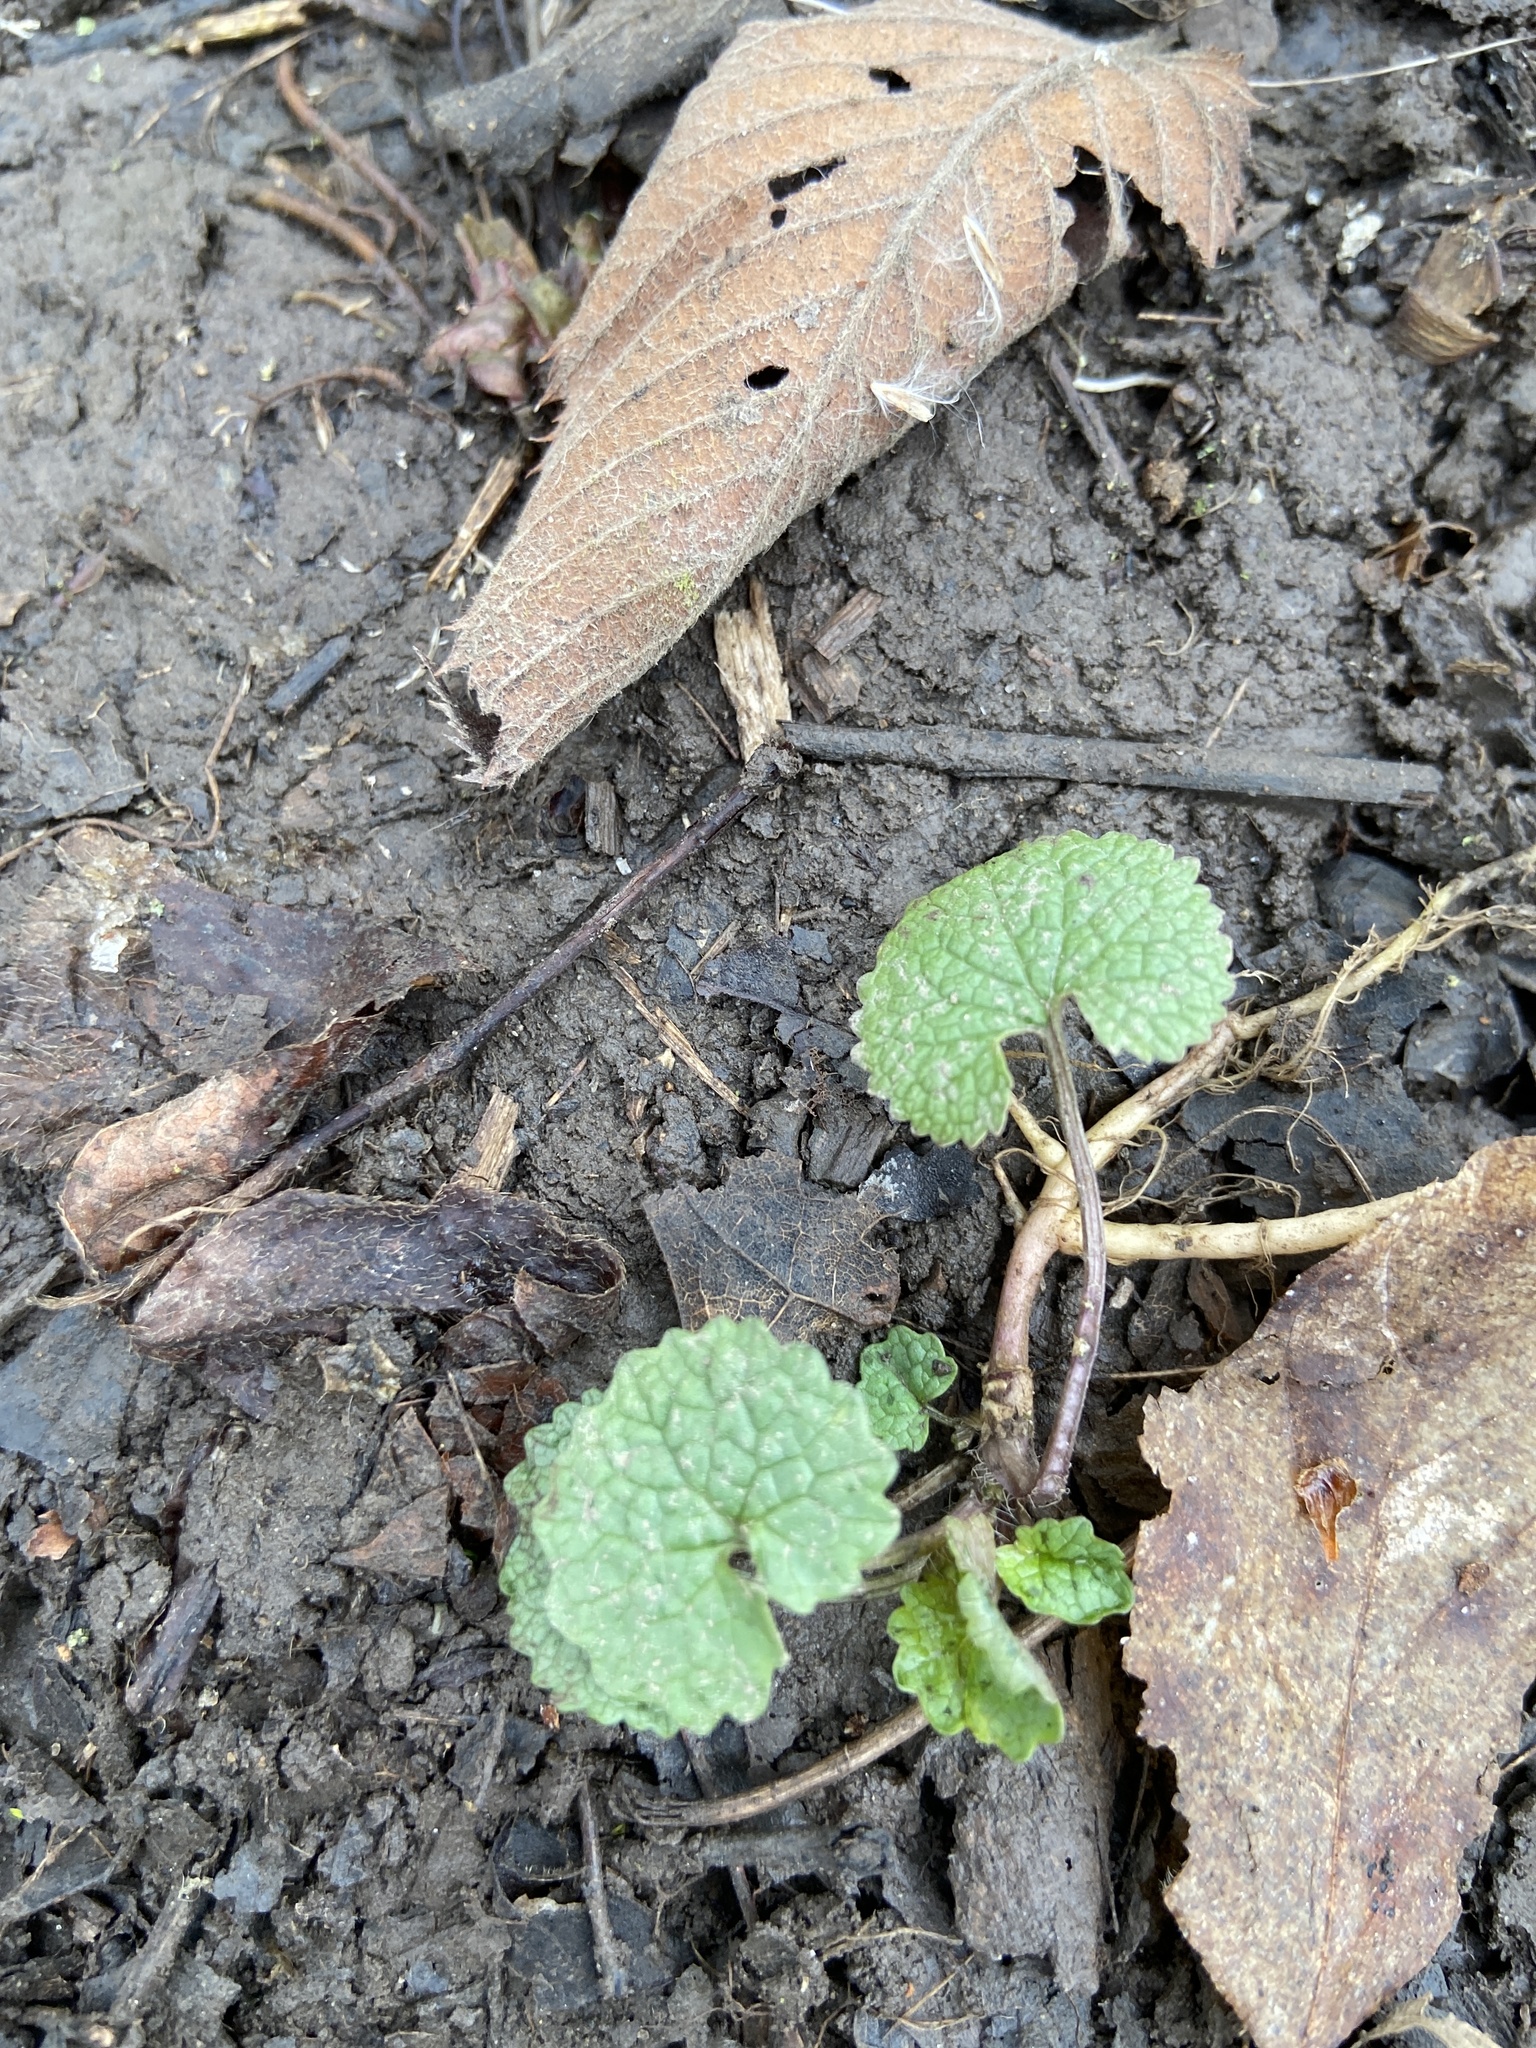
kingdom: Plantae
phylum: Tracheophyta
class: Magnoliopsida
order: Brassicales
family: Brassicaceae
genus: Alliaria
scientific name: Alliaria petiolata
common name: Garlic mustard
